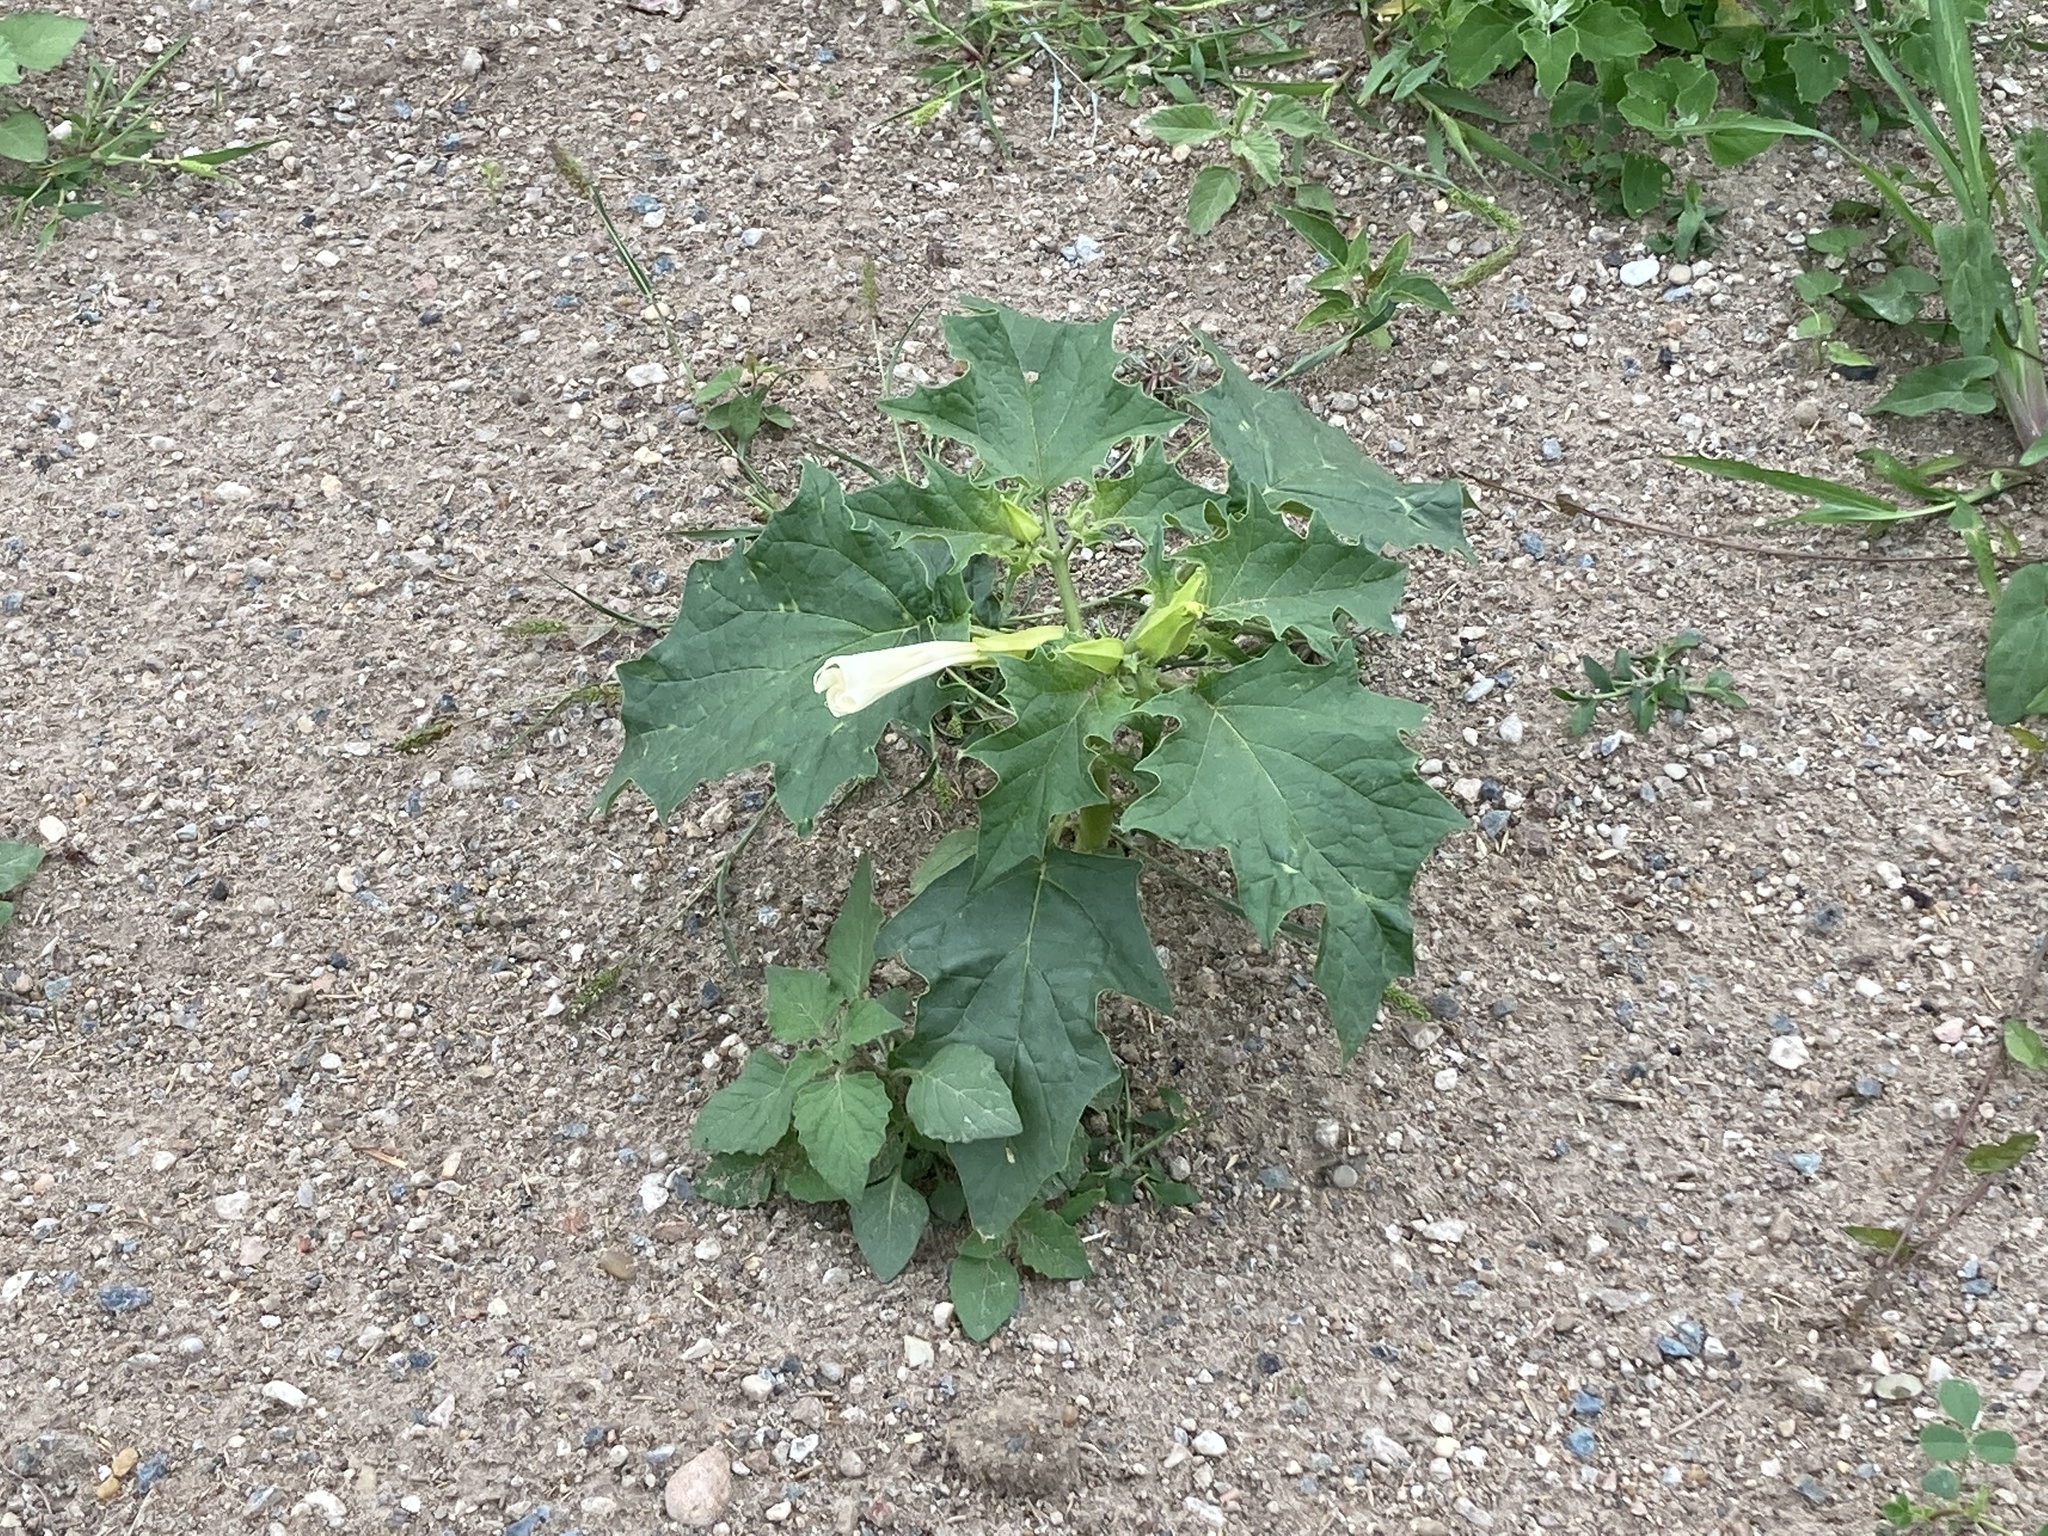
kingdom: Plantae
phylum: Tracheophyta
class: Magnoliopsida
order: Solanales
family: Solanaceae
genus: Datura
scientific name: Datura stramonium
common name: Thorn-apple
